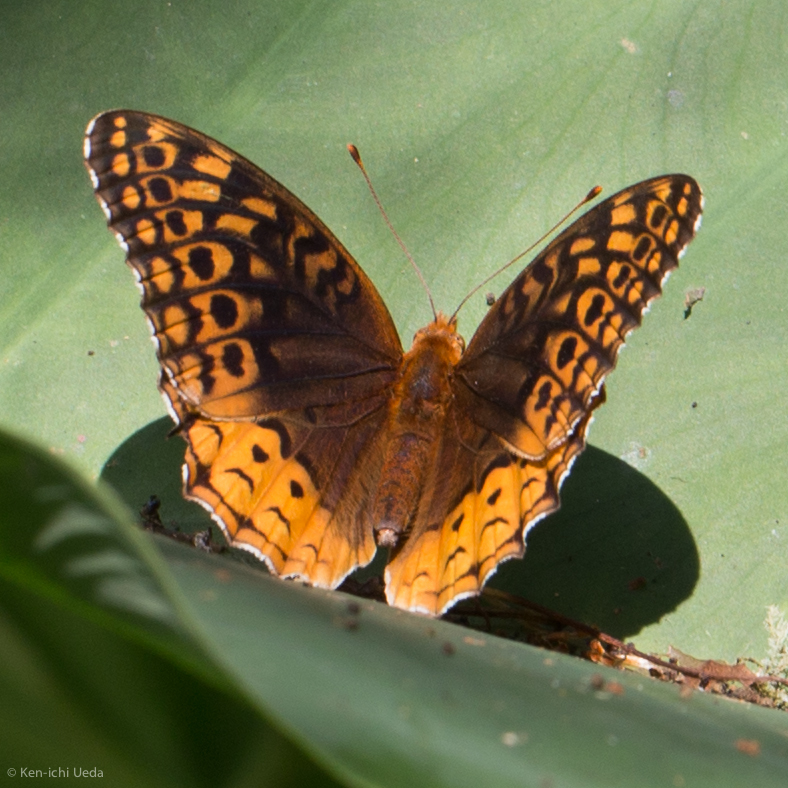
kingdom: Animalia
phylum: Arthropoda
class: Insecta
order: Lepidoptera
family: Nymphalidae
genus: Speyeria
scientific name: Speyeria cybele
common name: Great spangled fritillary
